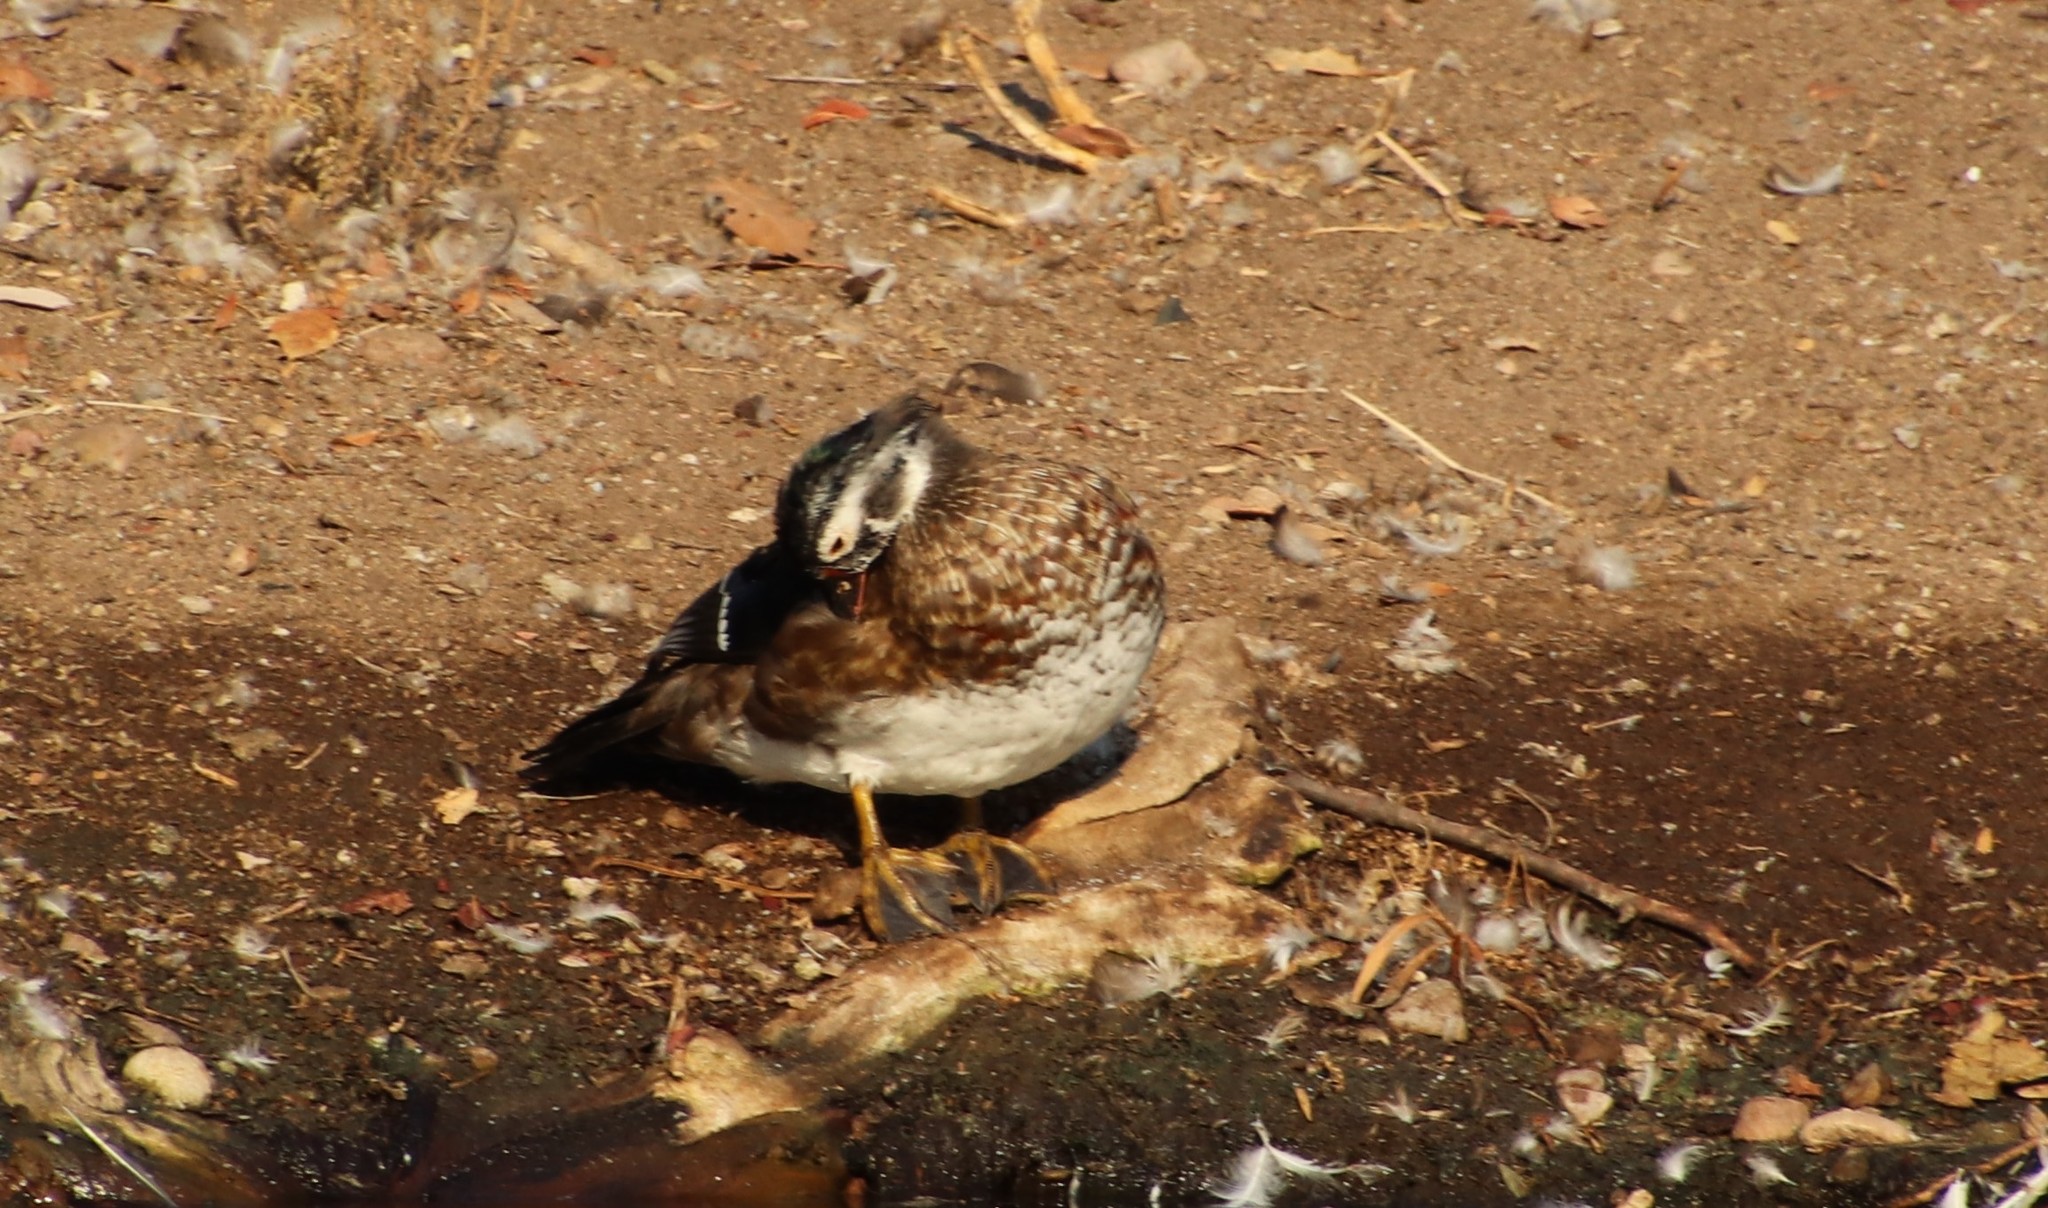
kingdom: Animalia
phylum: Chordata
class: Aves
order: Anseriformes
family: Anatidae
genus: Aix
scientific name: Aix sponsa
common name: Wood duck
